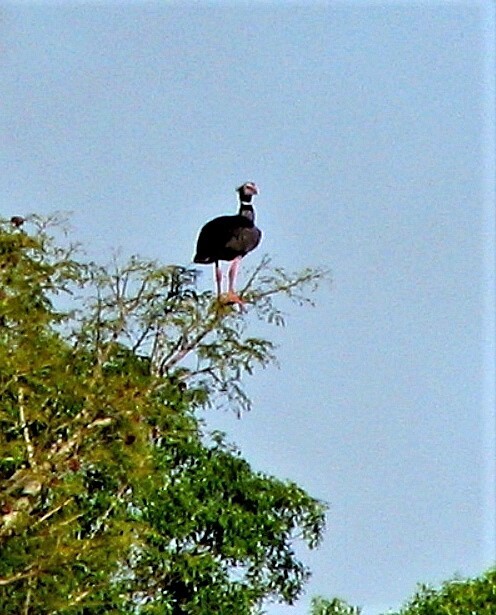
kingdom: Animalia
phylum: Chordata
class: Aves
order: Anseriformes
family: Anhimidae
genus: Chauna
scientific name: Chauna torquata
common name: Southern screamer
